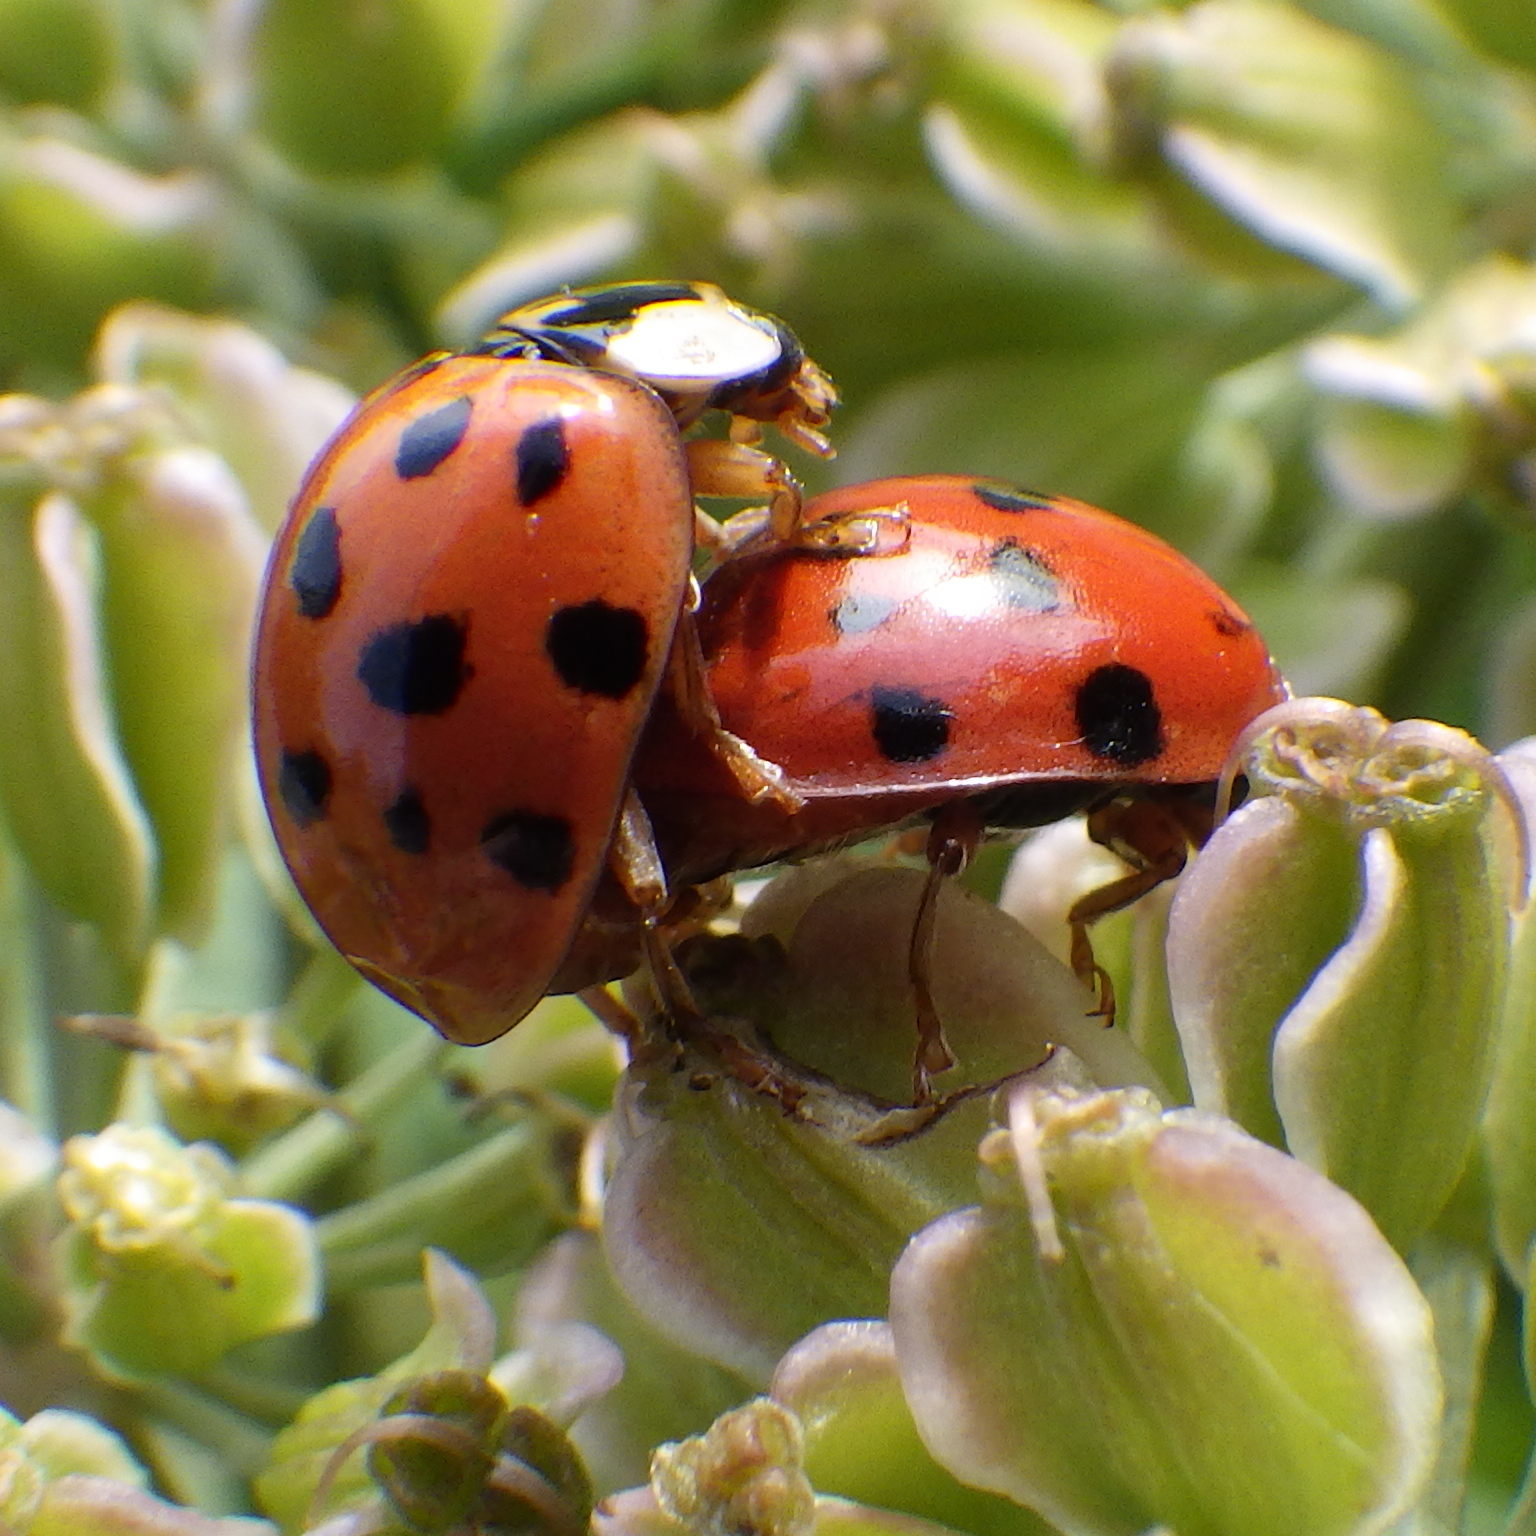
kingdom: Animalia
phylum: Arthropoda
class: Insecta
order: Coleoptera
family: Coccinellidae
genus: Harmonia
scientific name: Harmonia axyridis
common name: Harlequin ladybird
